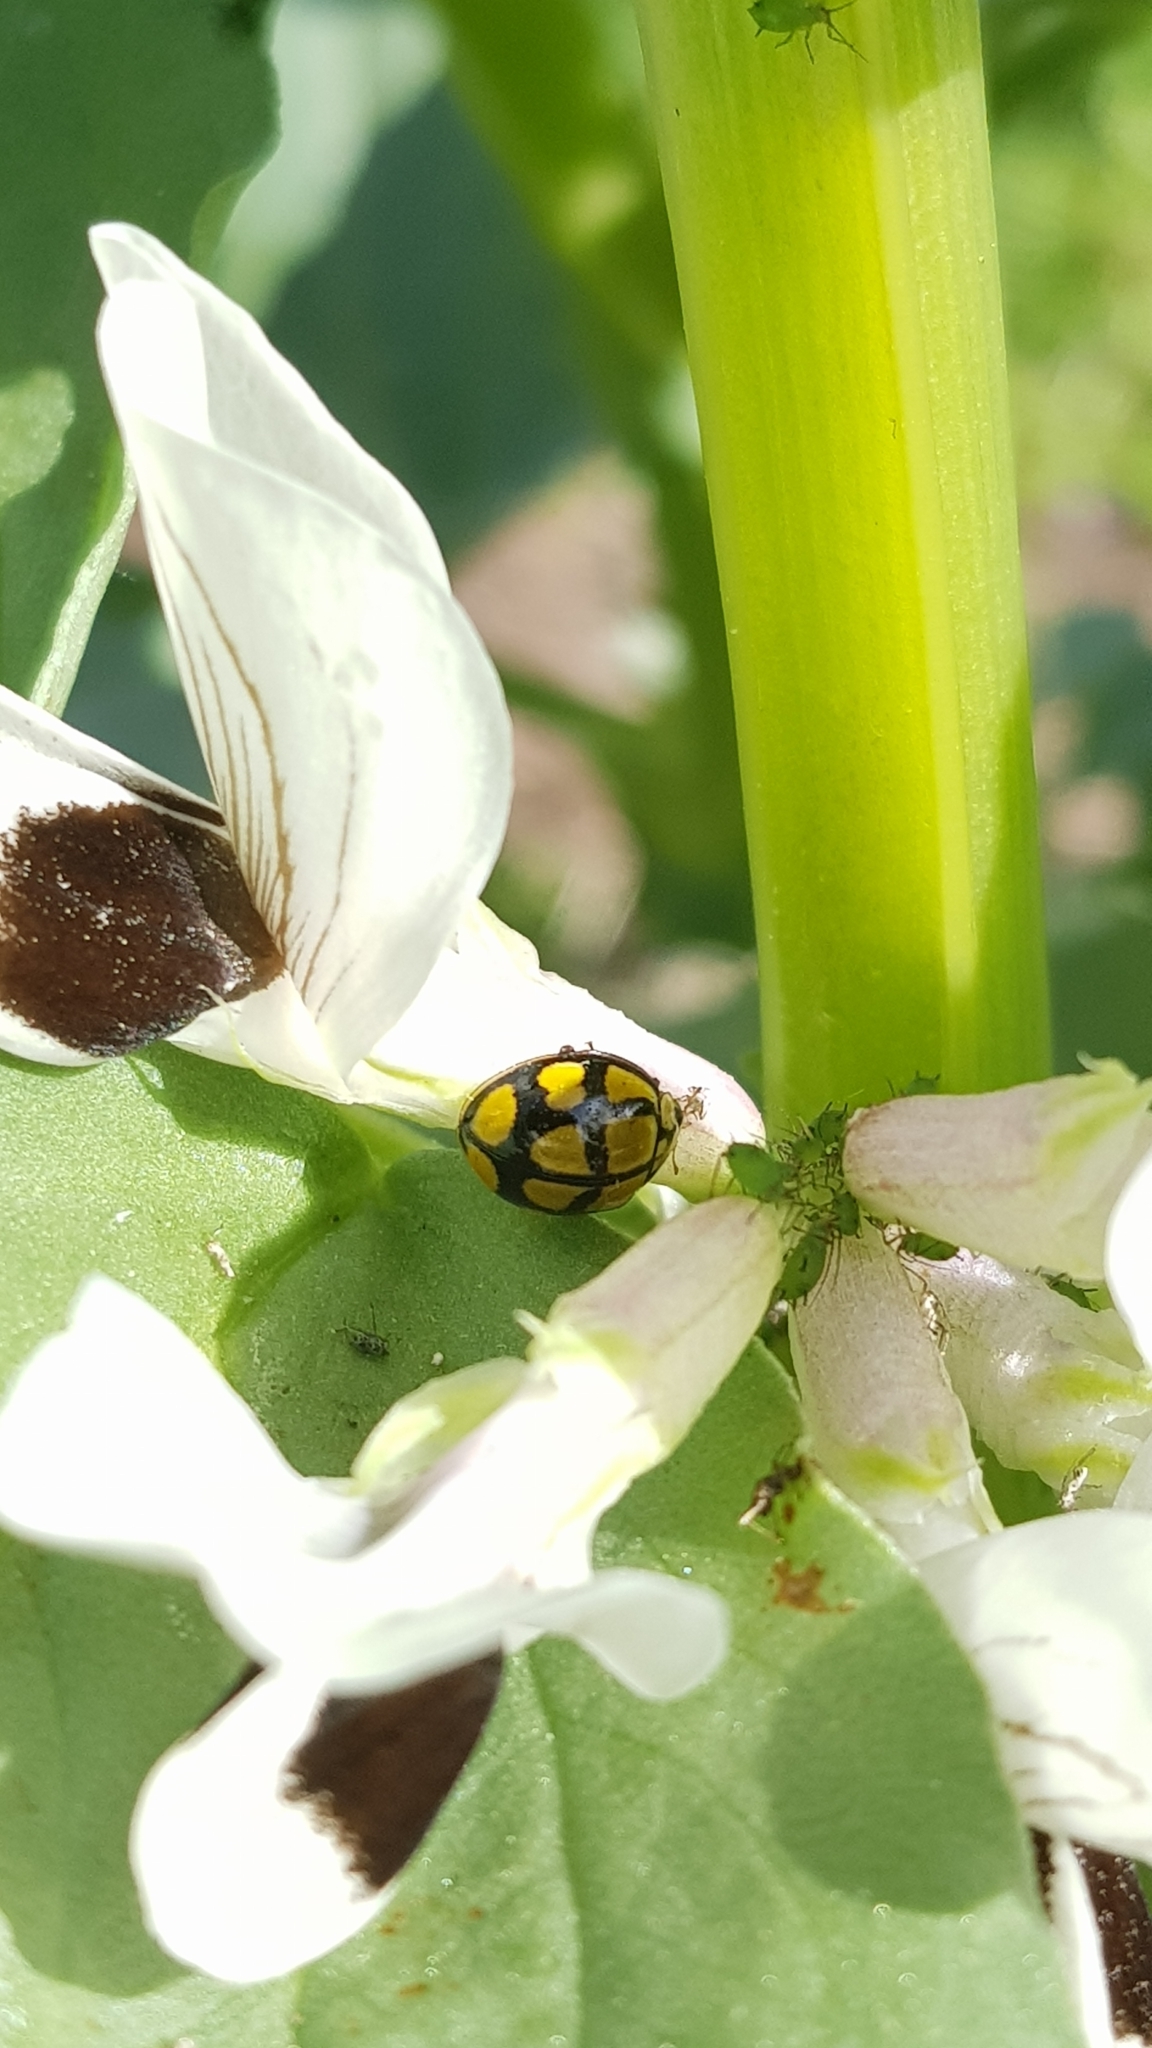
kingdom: Animalia
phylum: Arthropoda
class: Insecta
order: Coleoptera
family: Coccinellidae
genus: Harmonia
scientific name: Harmonia
